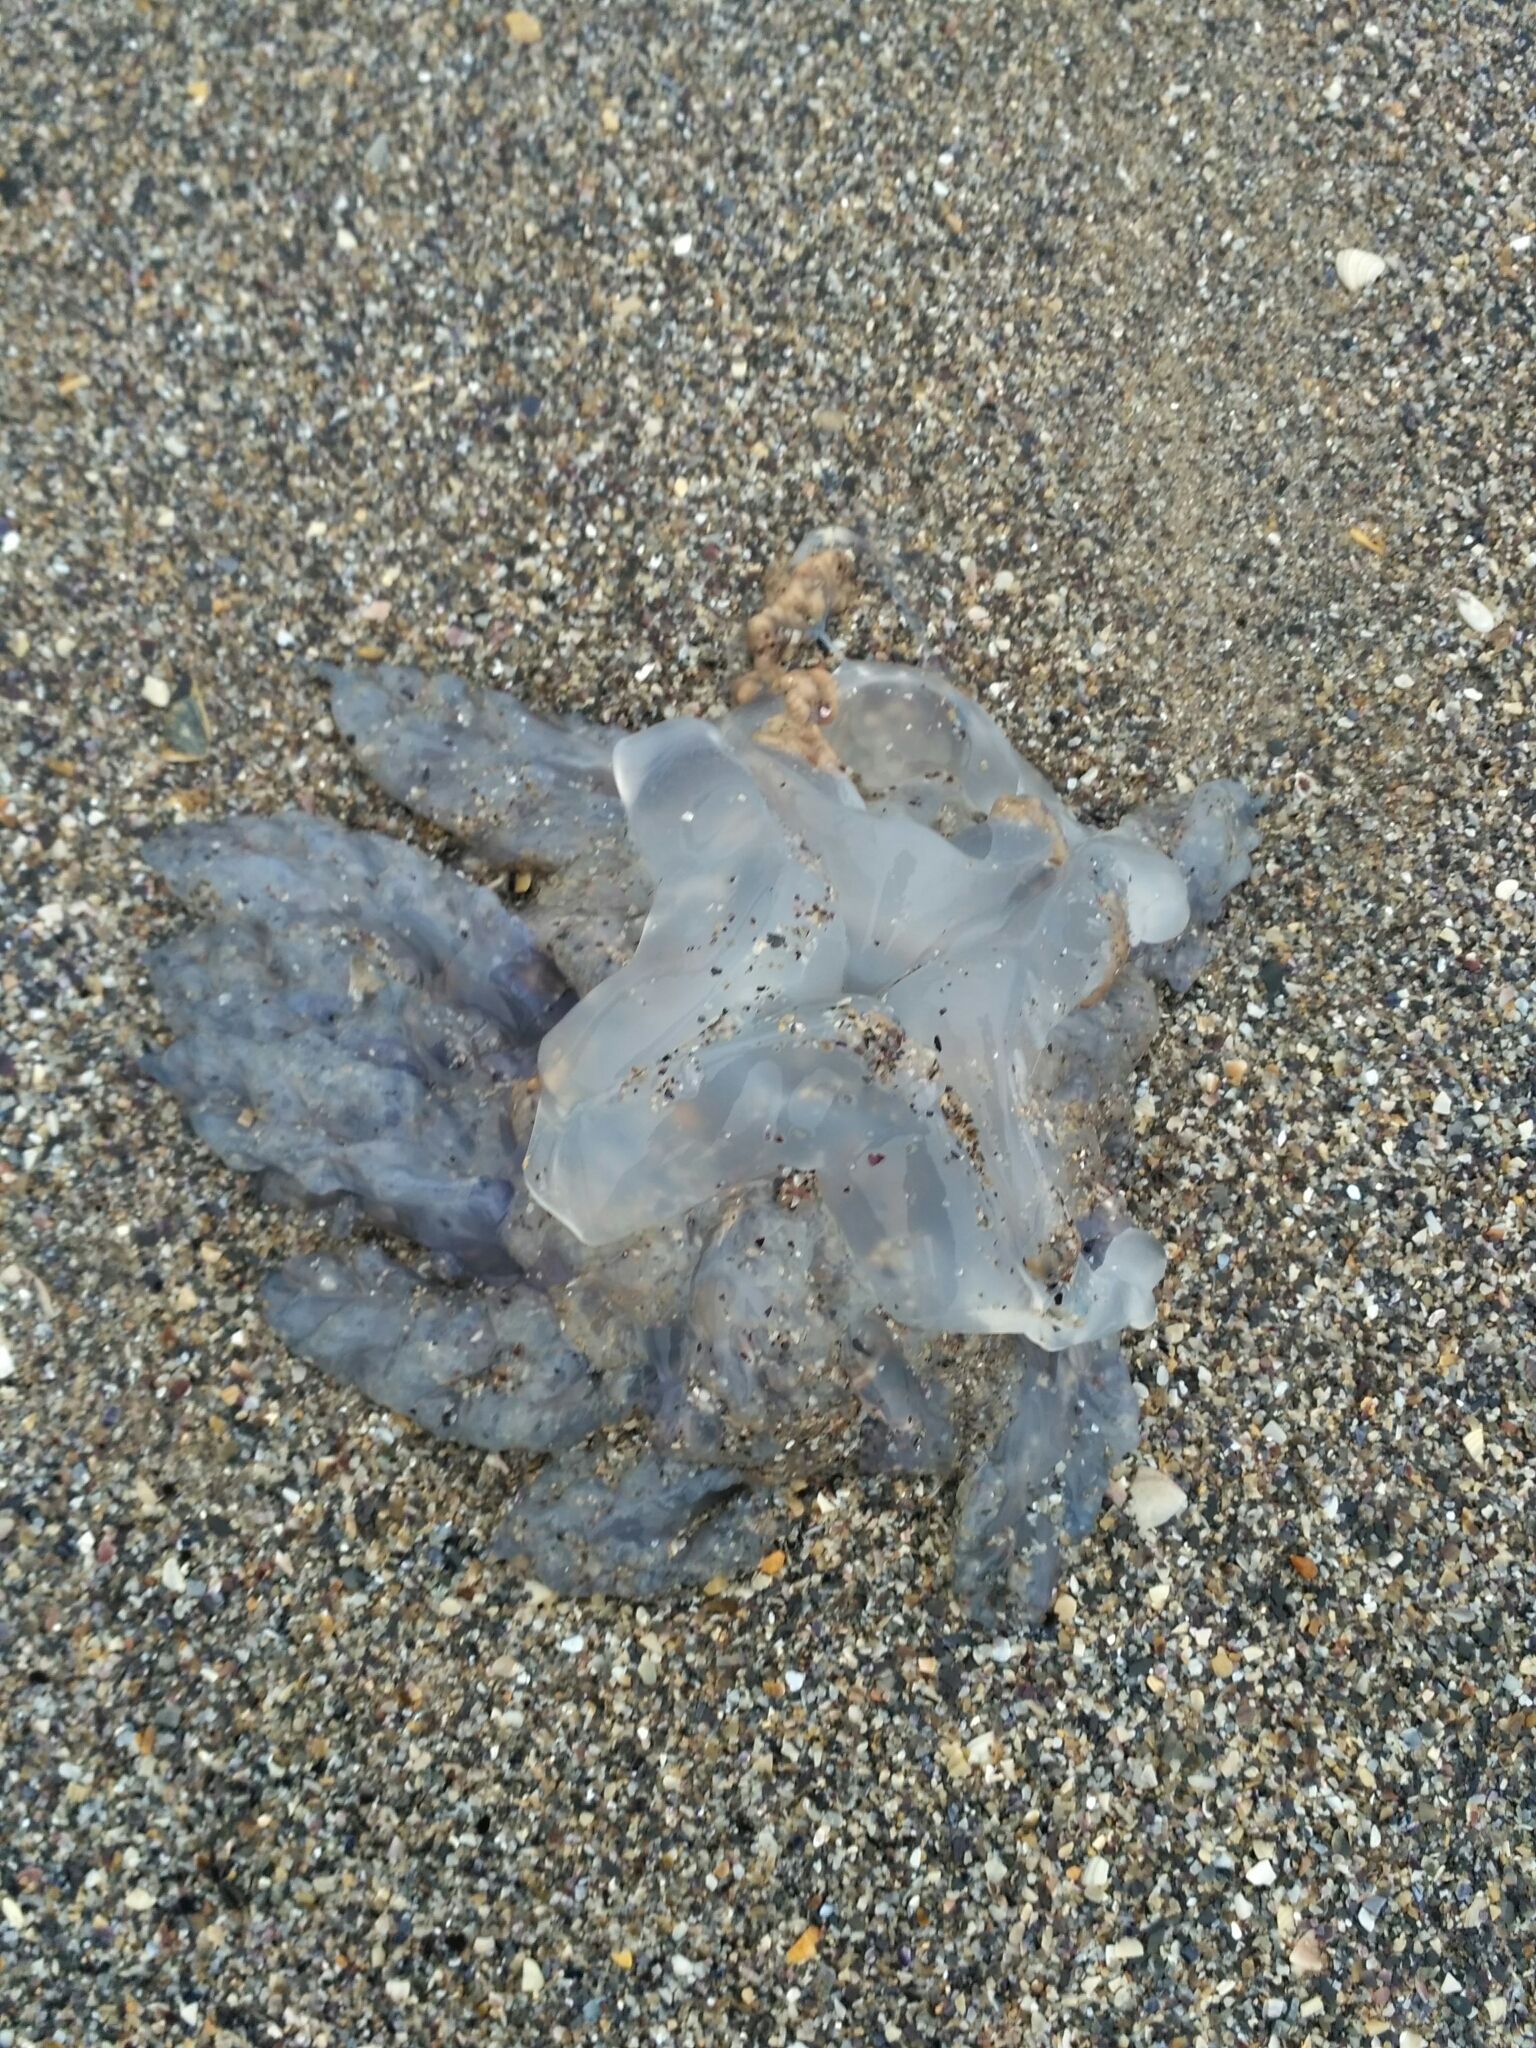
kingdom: Animalia
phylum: Cnidaria
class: Scyphozoa
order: Rhizostomeae
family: Rhizostomatidae
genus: Rhizostoma
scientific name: Rhizostoma pulmo
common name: Barrel jellyfish
